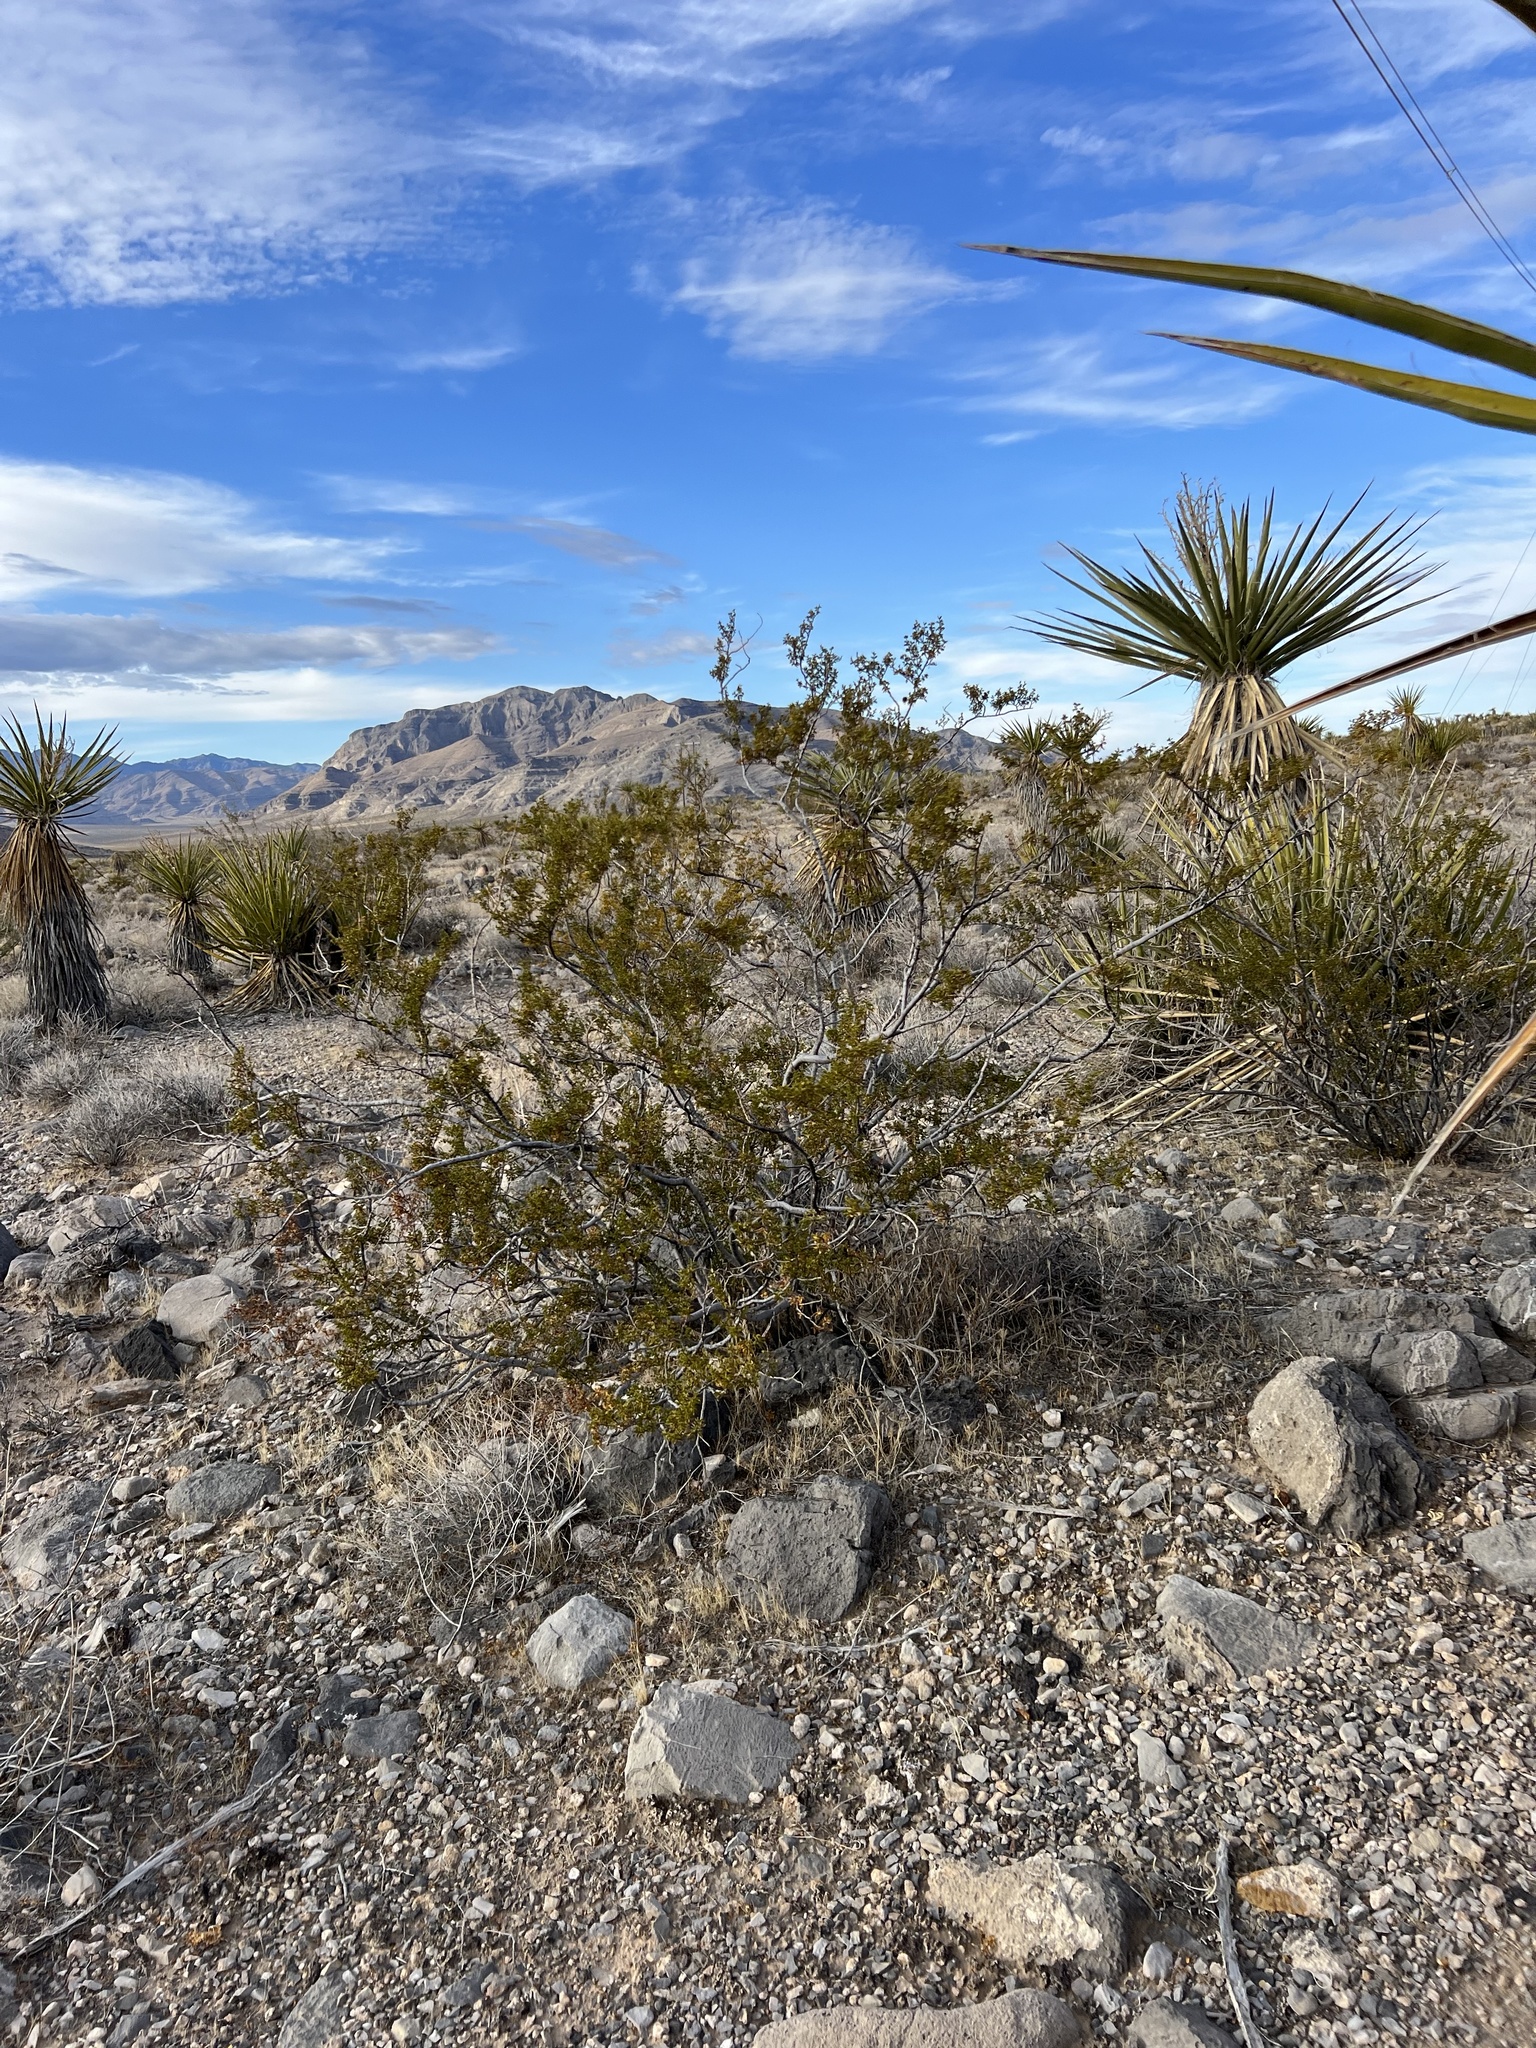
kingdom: Plantae
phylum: Tracheophyta
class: Magnoliopsida
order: Zygophyllales
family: Zygophyllaceae
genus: Larrea
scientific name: Larrea tridentata
